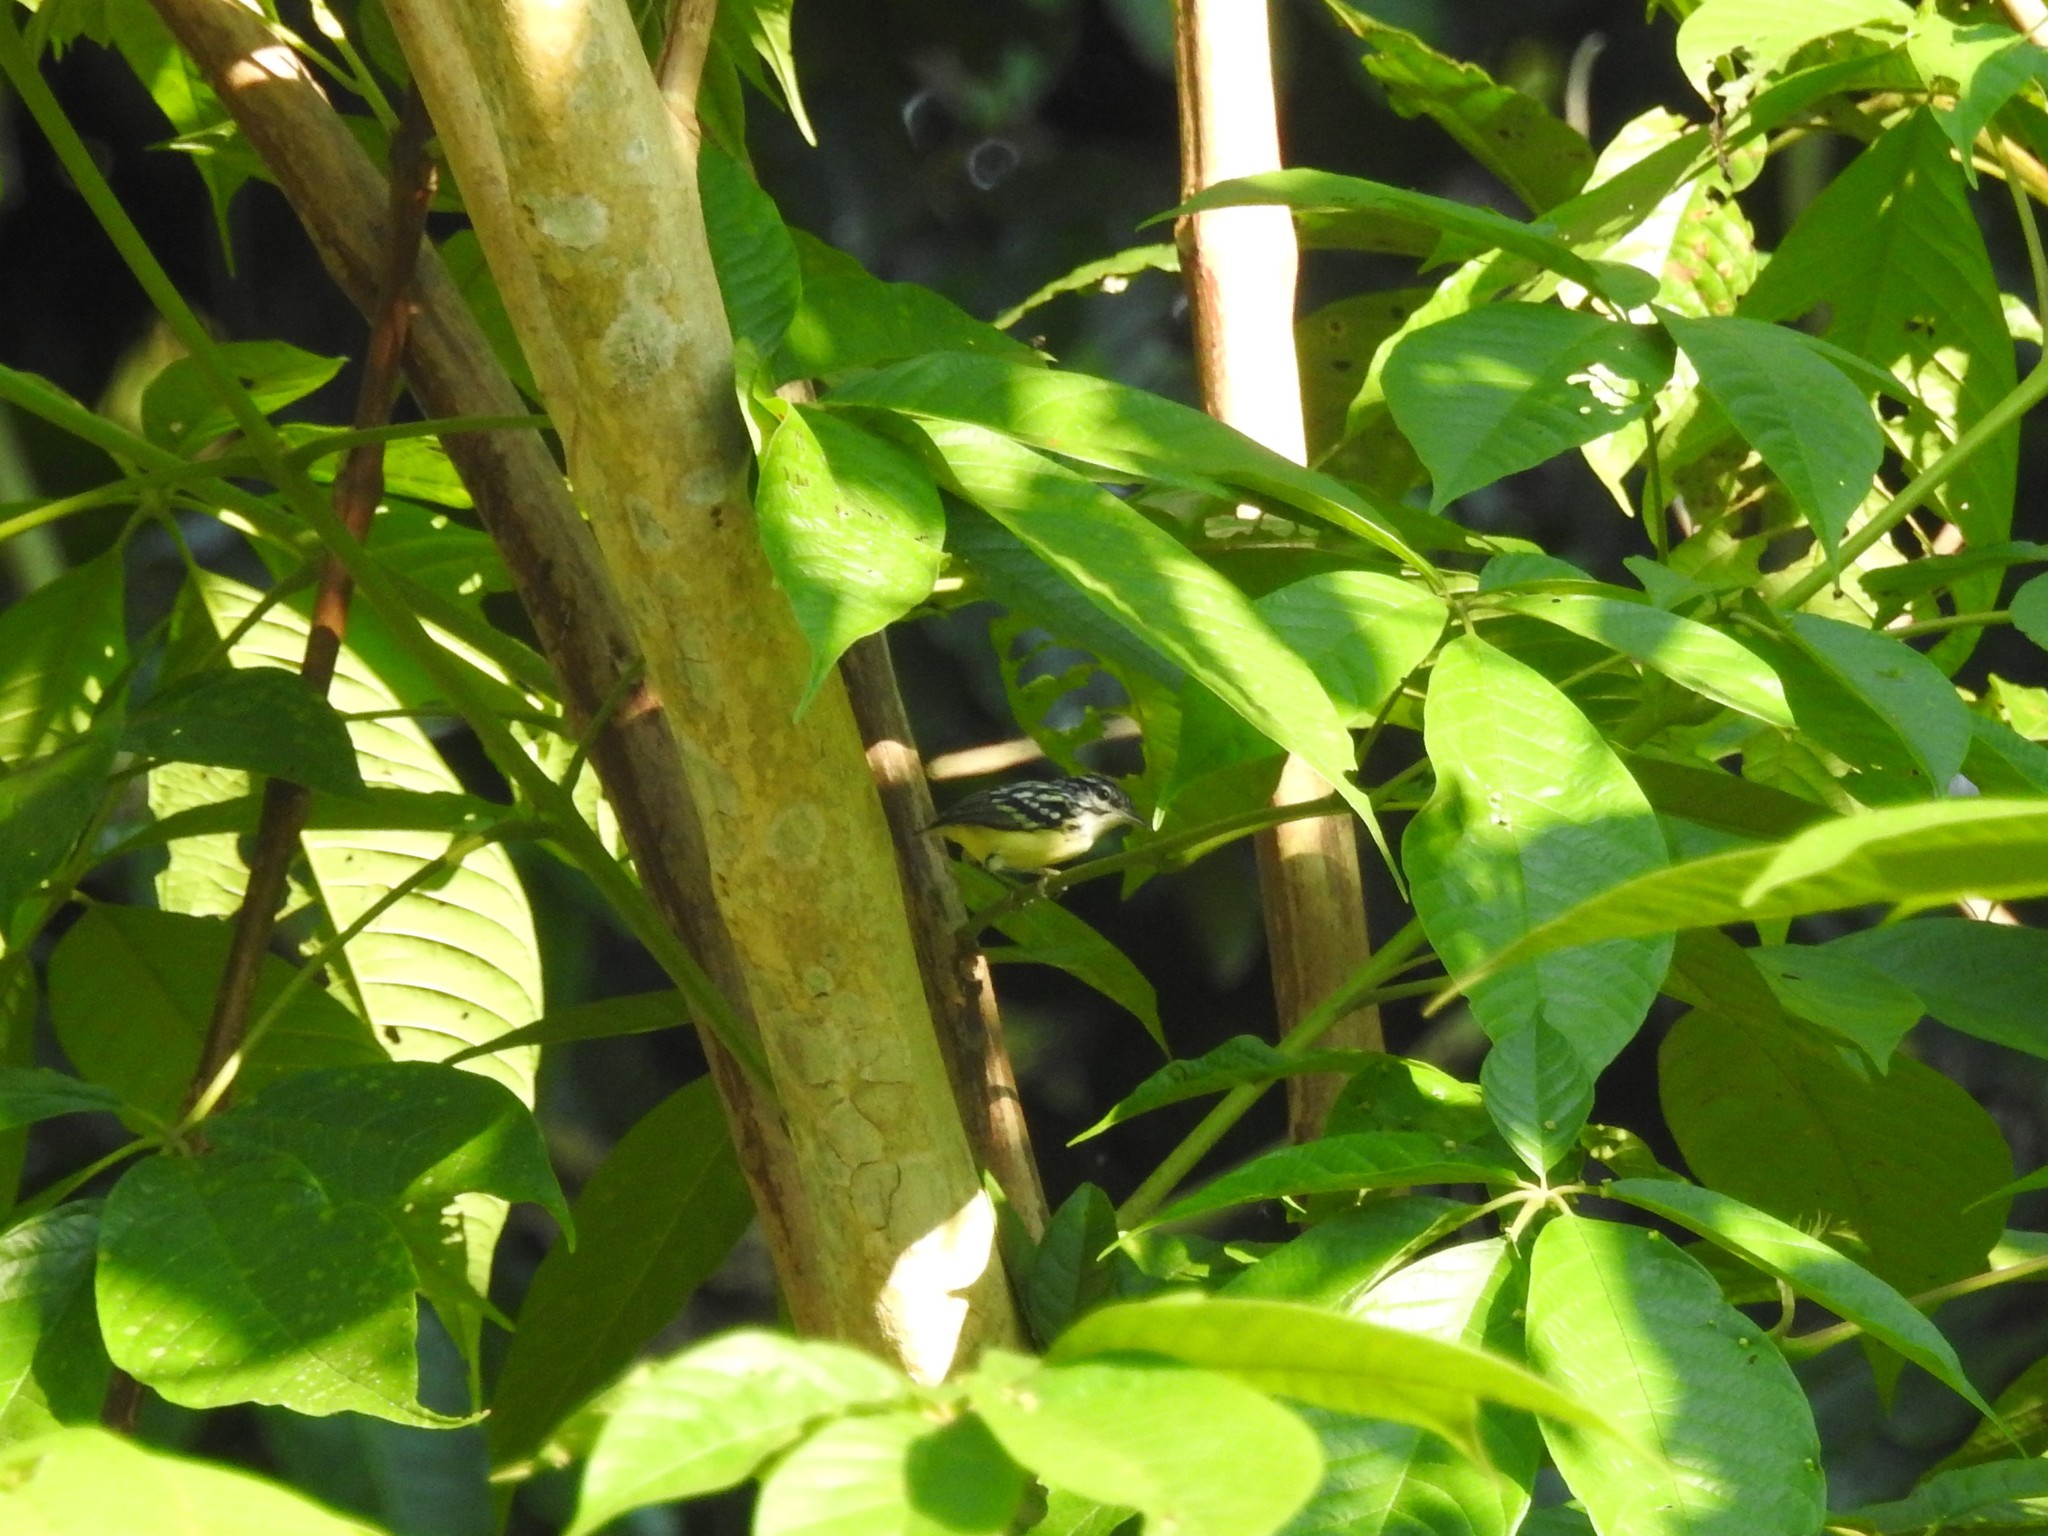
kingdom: Animalia
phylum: Chordata
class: Aves
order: Passeriformes
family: Thamnophilidae
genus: Myrmotherula
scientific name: Myrmotherula brachyura
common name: Pygmy antwren
